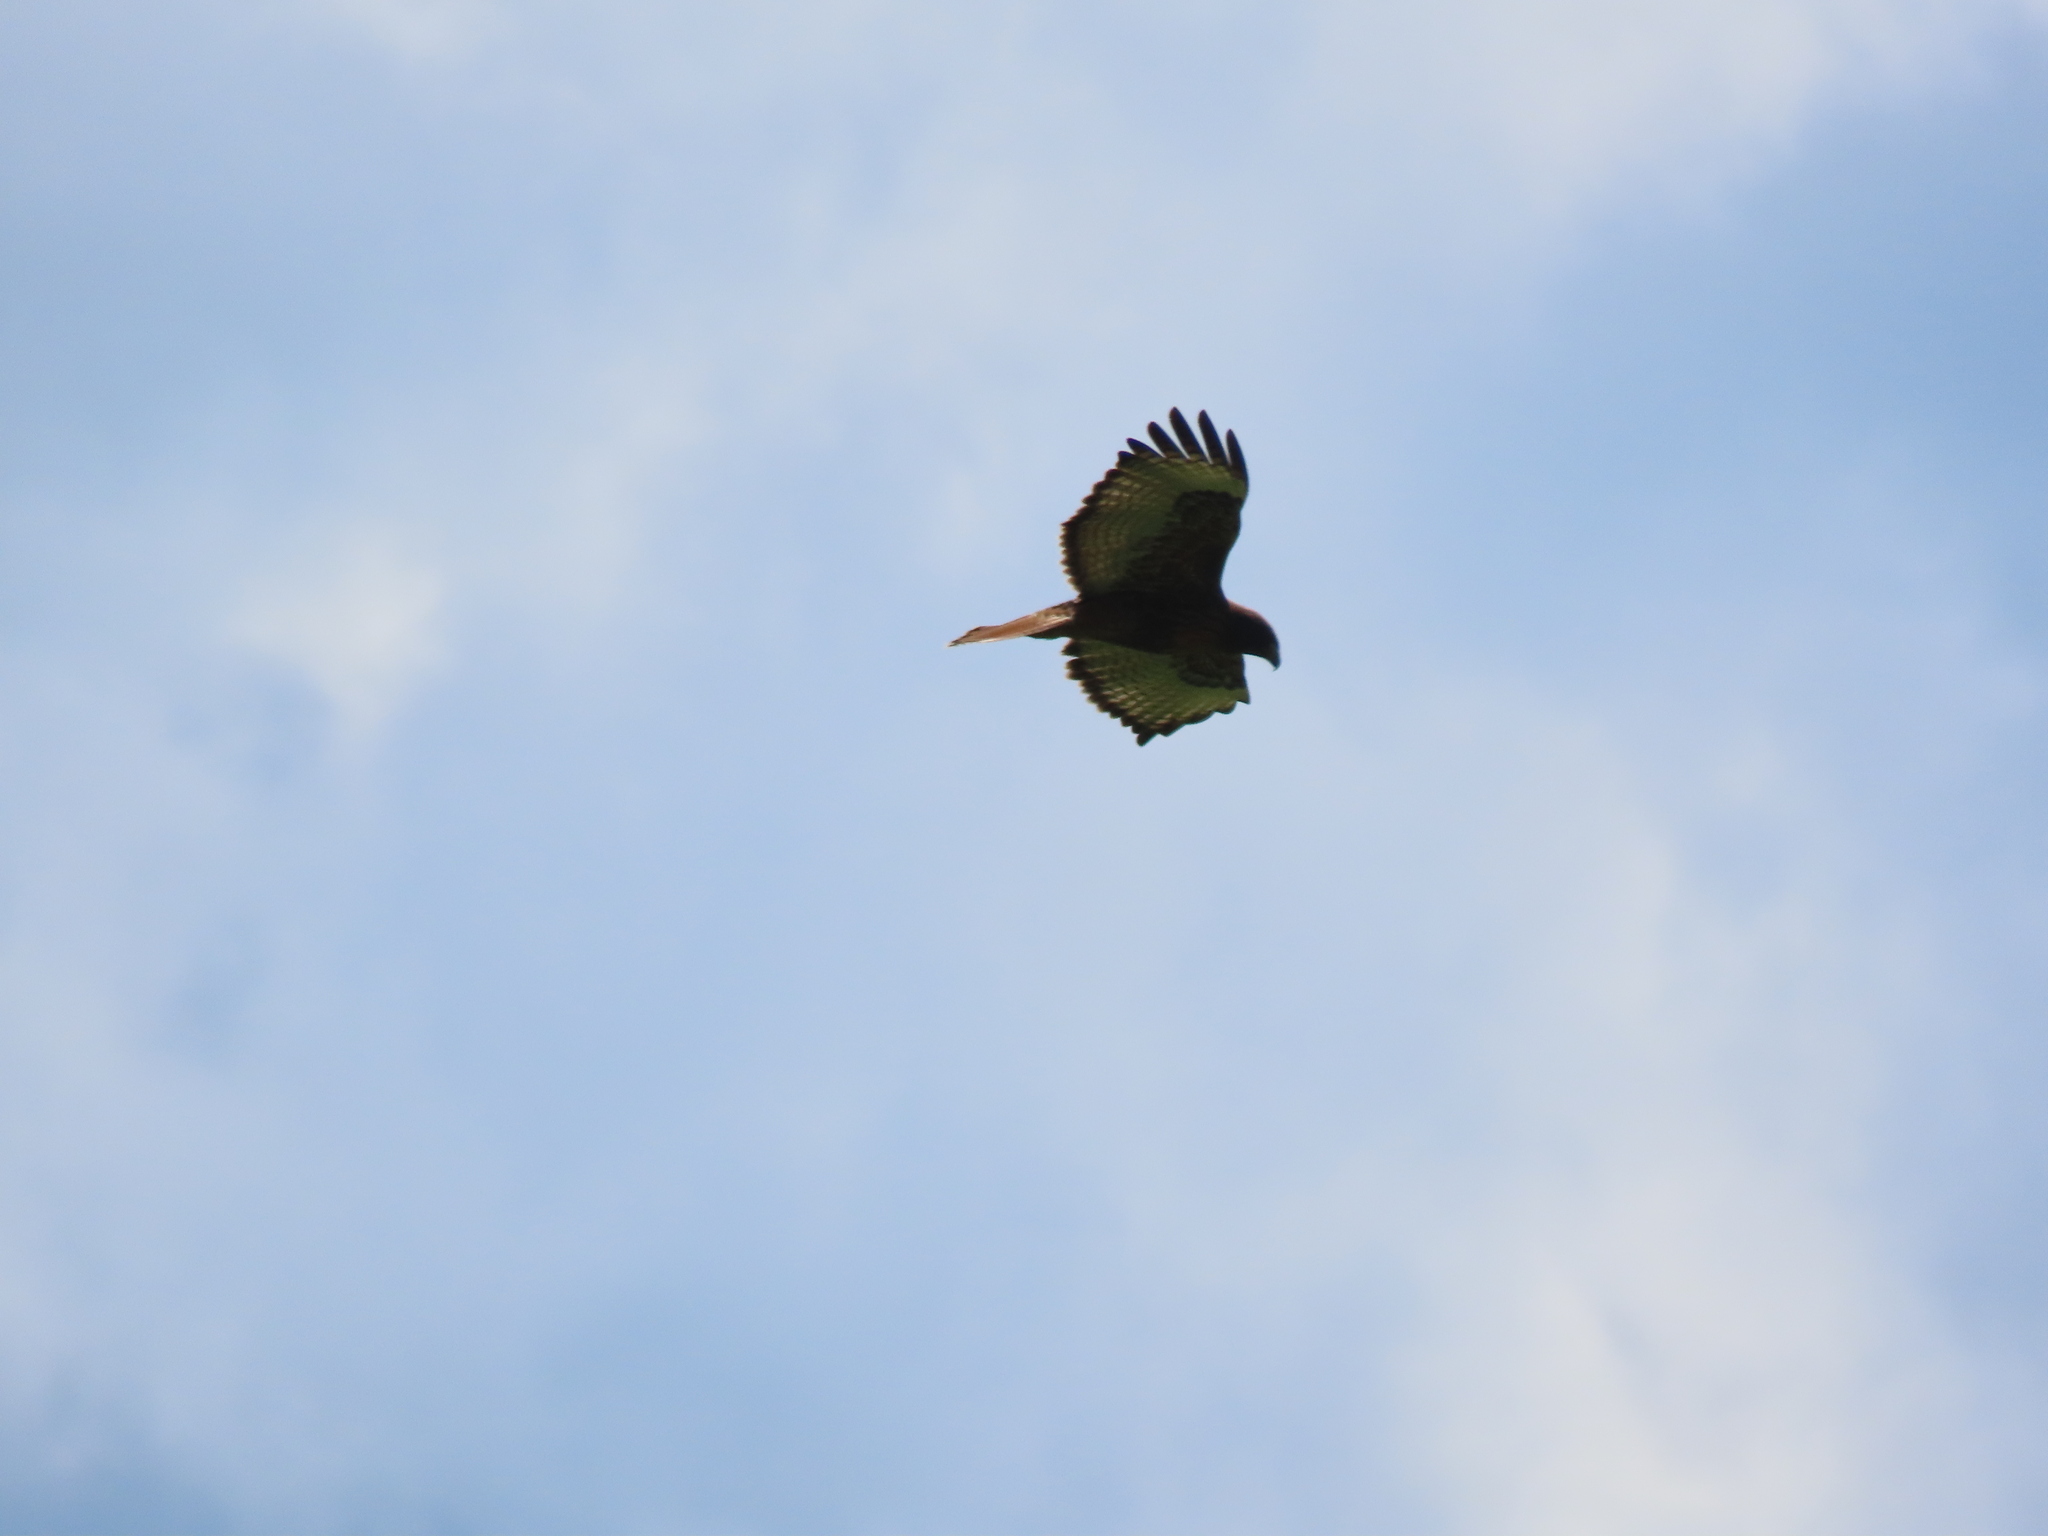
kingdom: Animalia
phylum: Chordata
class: Aves
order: Accipitriformes
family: Accipitridae
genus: Buteo
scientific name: Buteo jamaicensis
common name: Red-tailed hawk
